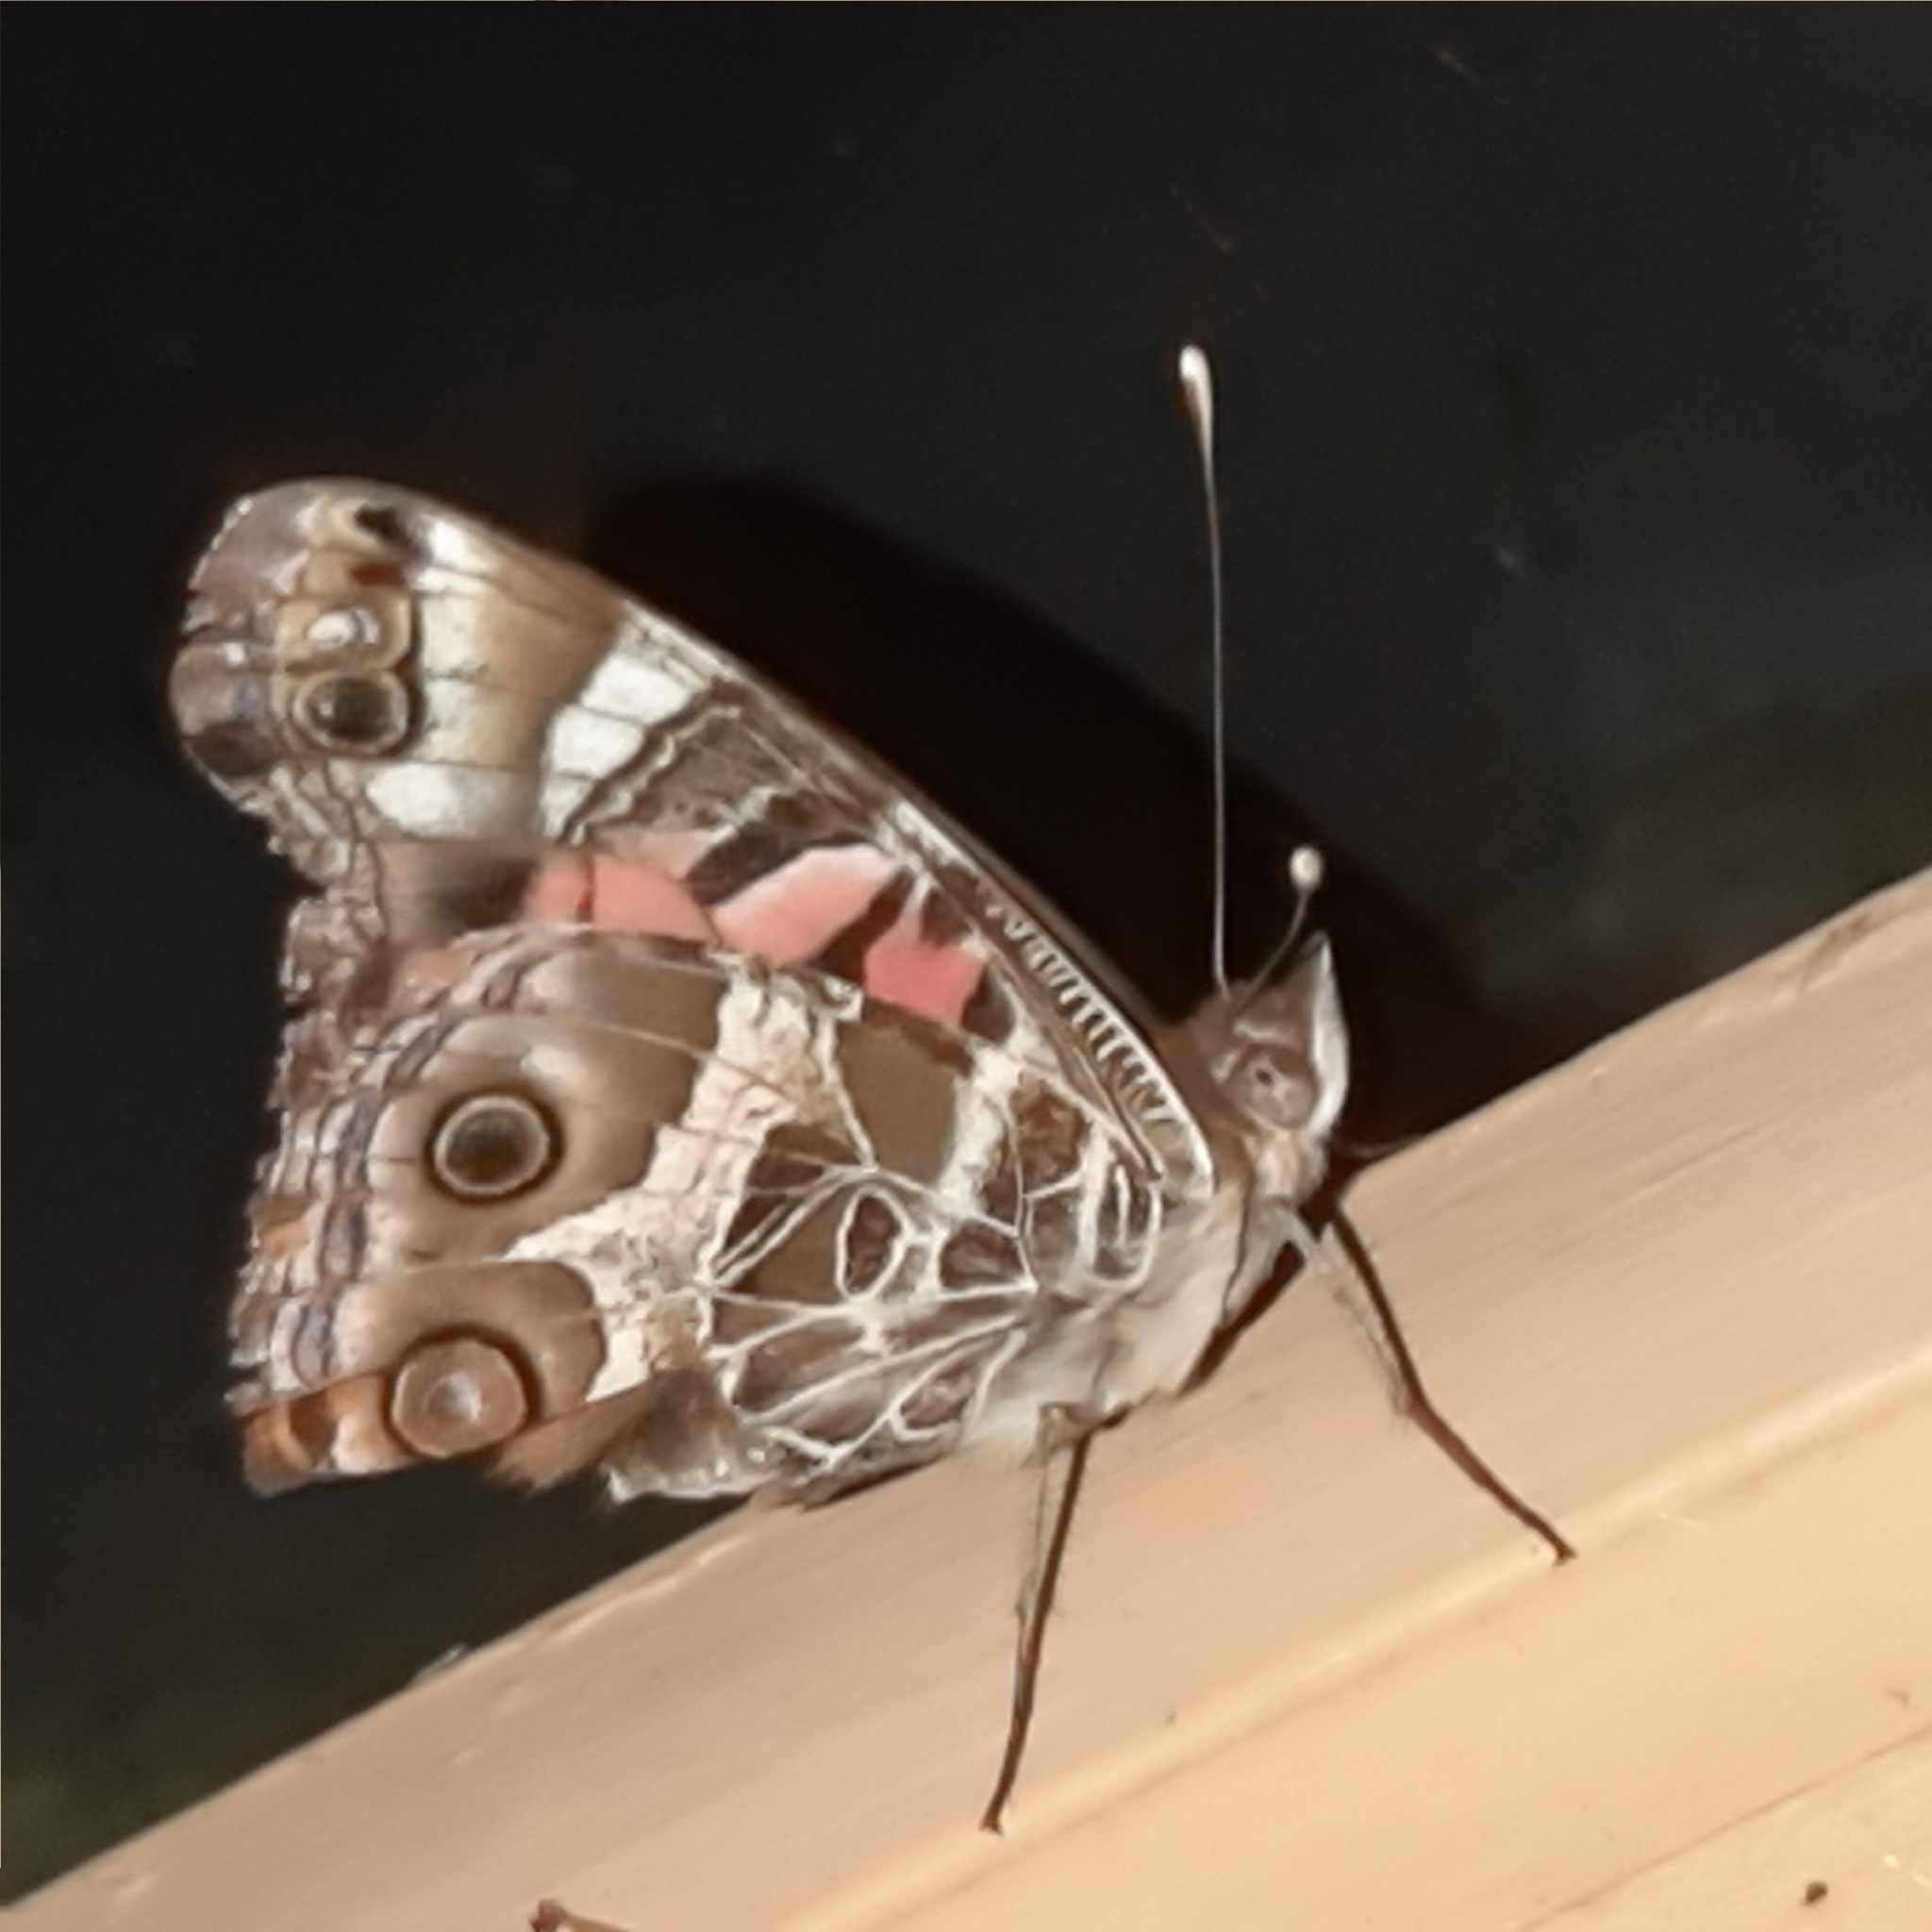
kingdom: Animalia
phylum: Arthropoda
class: Insecta
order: Lepidoptera
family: Nymphalidae
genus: Vanessa
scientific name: Vanessa virginiensis
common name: American lady
